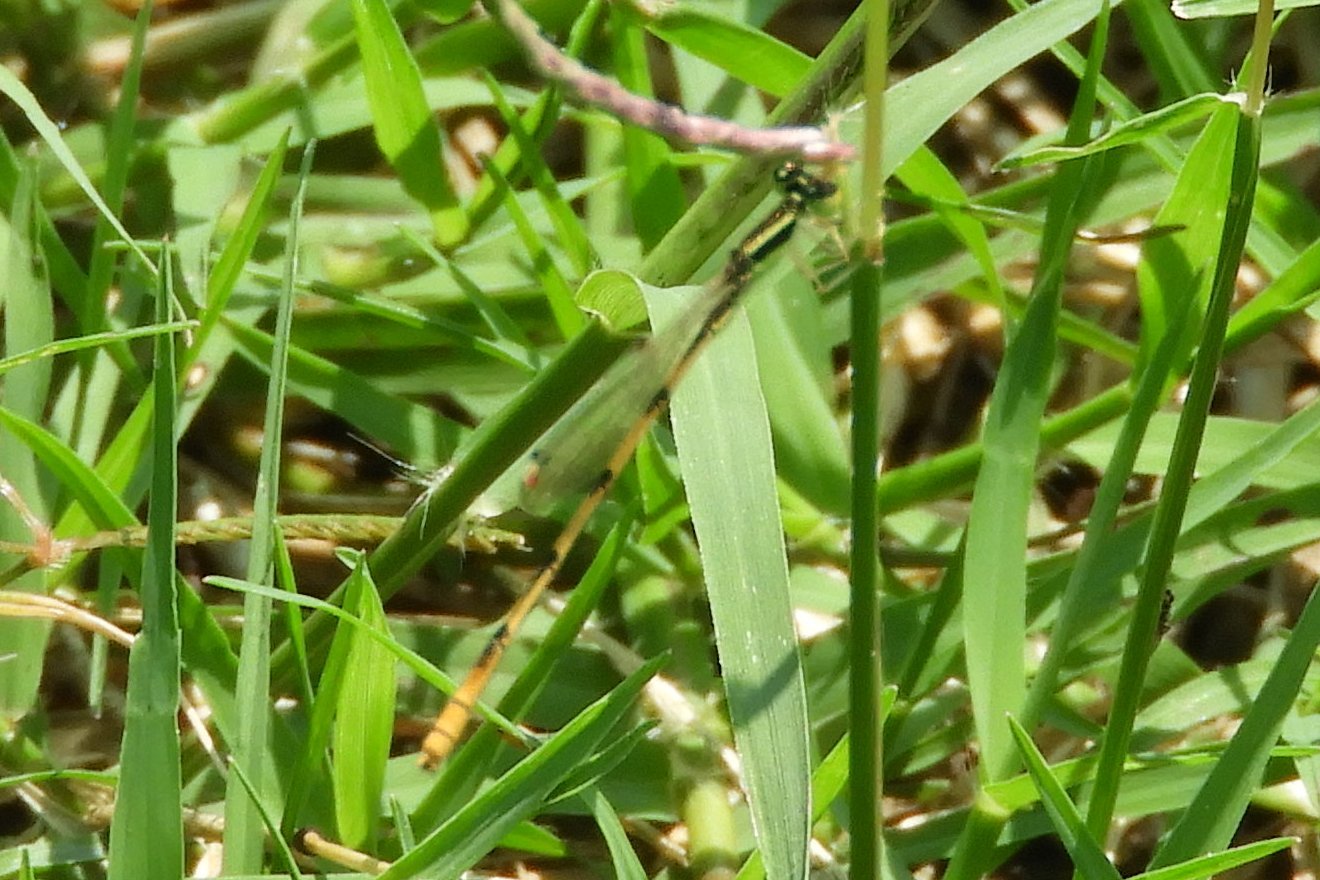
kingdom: Animalia
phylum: Arthropoda
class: Insecta
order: Odonata
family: Coenagrionidae
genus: Ischnura
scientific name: Ischnura hastata
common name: Citrine forktail
